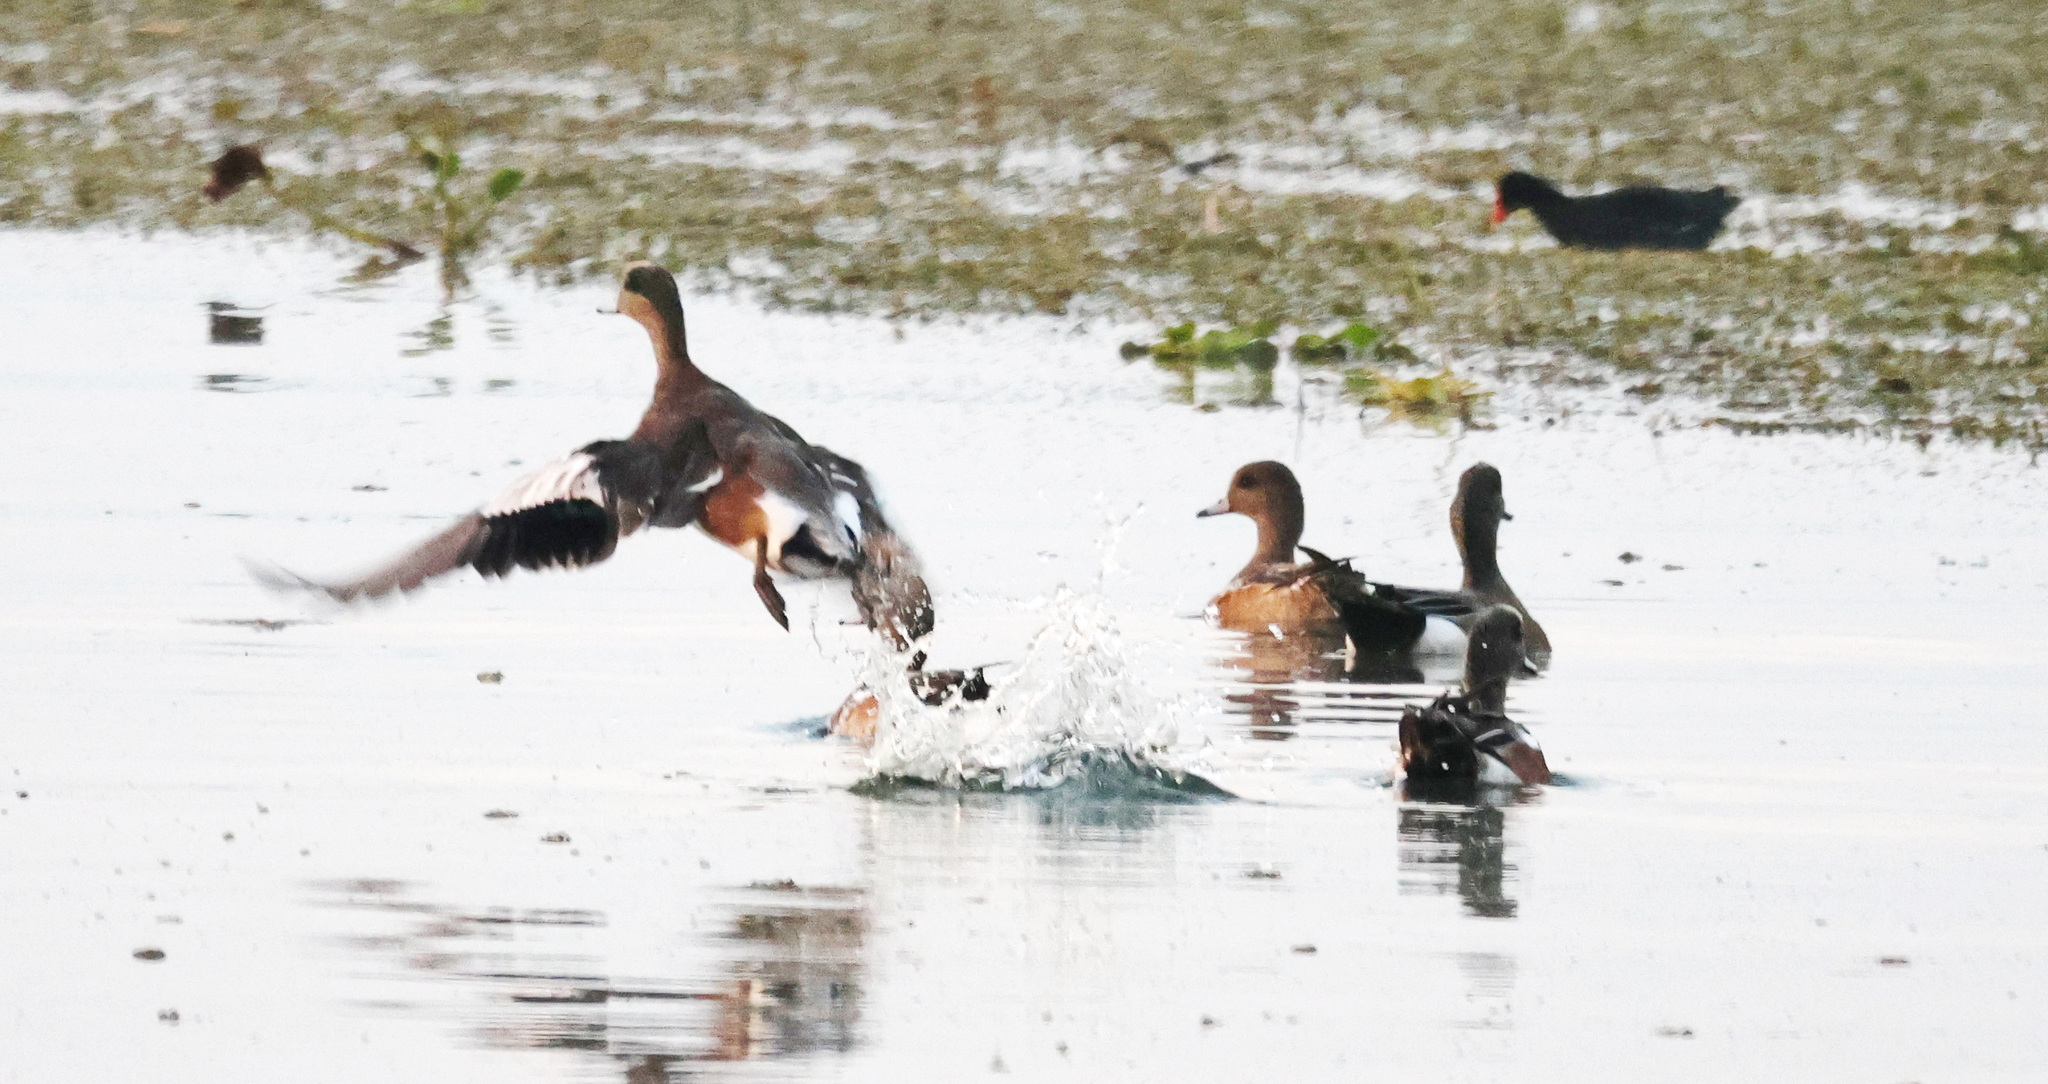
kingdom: Animalia
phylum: Chordata
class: Aves
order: Anseriformes
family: Anatidae
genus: Mareca
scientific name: Mareca americana
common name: American wigeon
